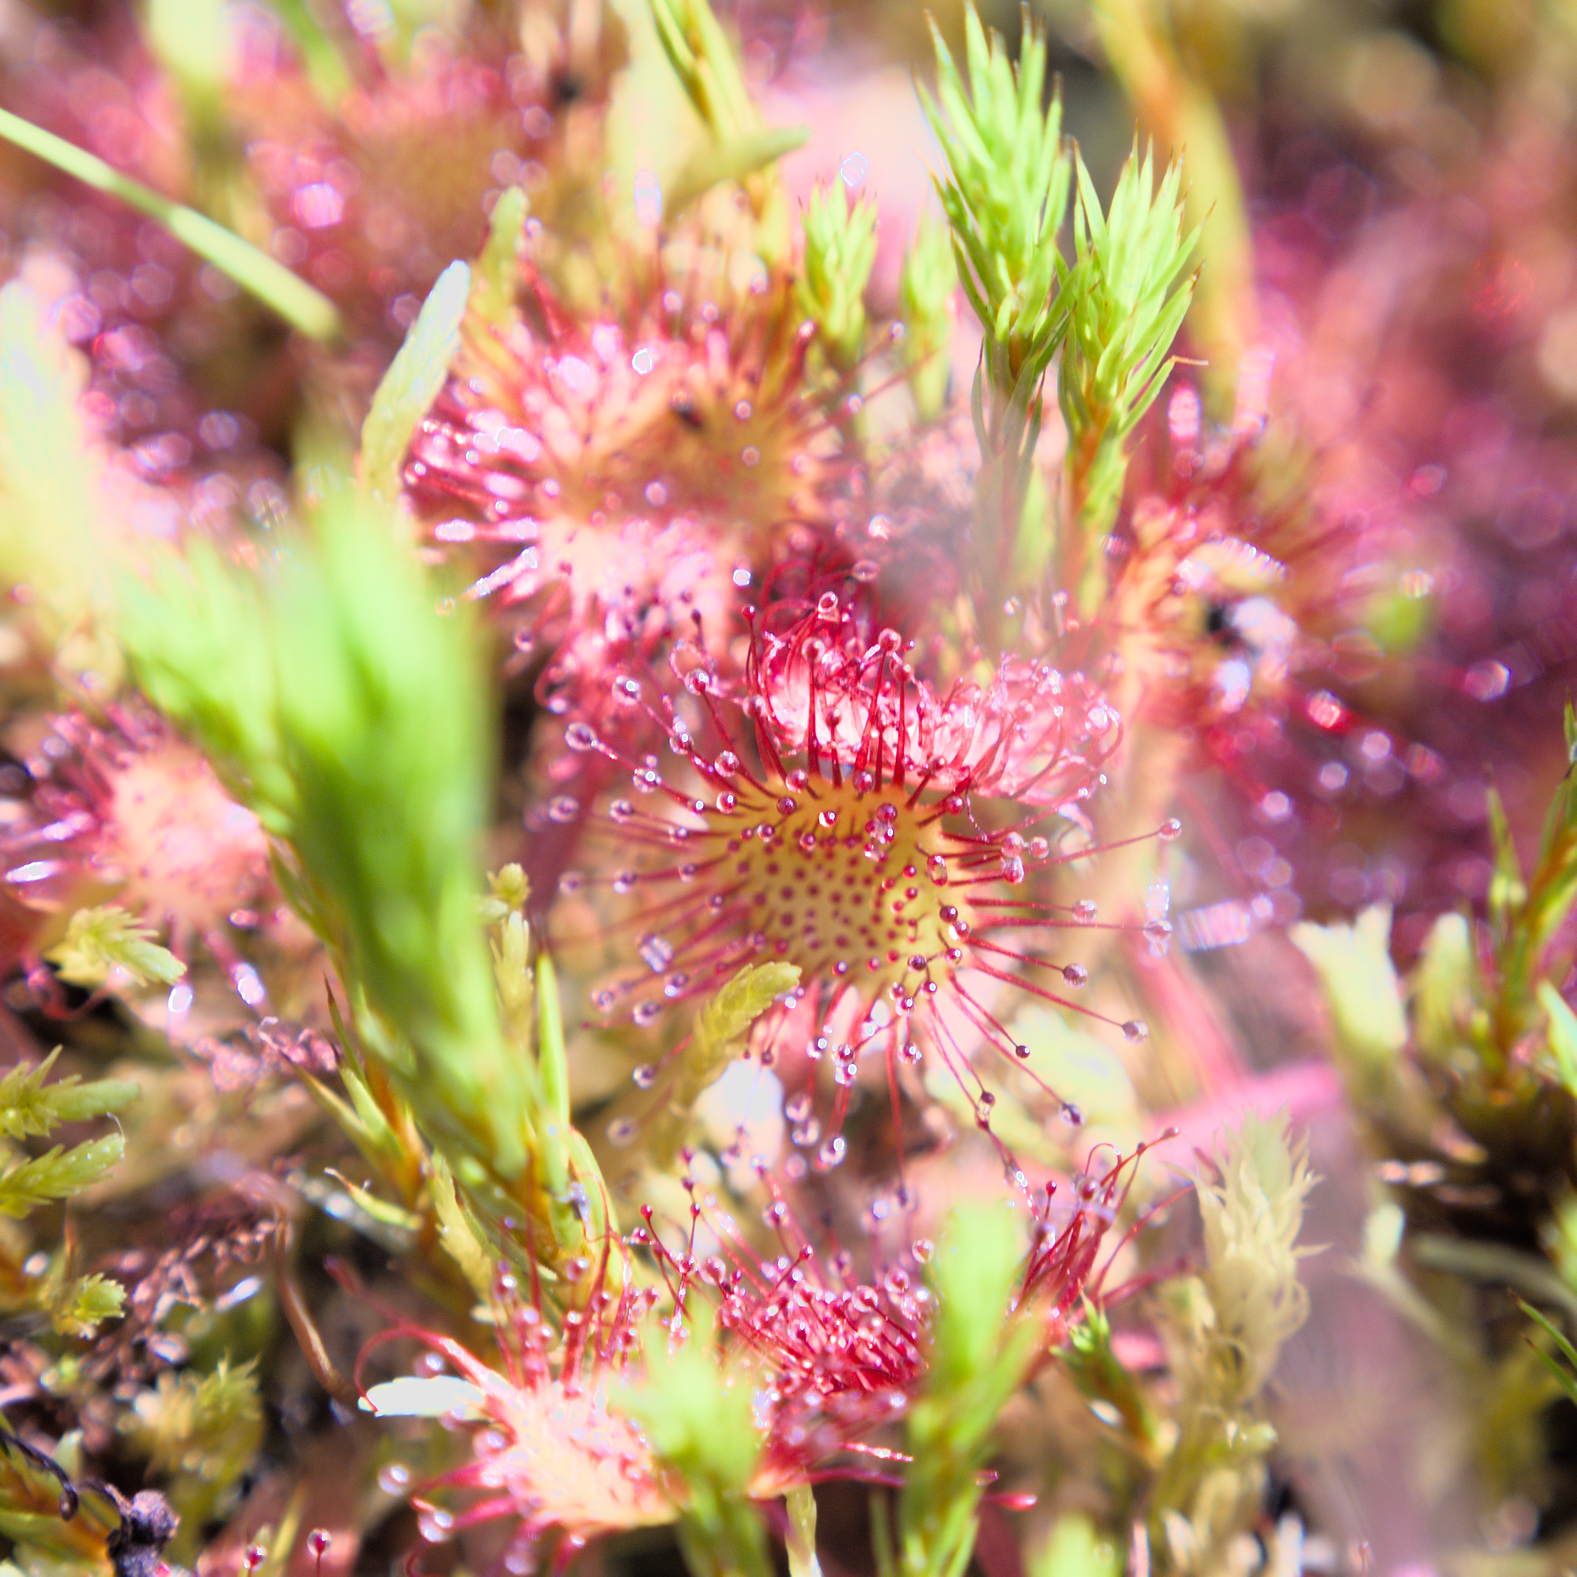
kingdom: Plantae
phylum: Tracheophyta
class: Magnoliopsida
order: Caryophyllales
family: Droseraceae
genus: Drosera
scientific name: Drosera rotundifolia
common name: Round-leaved sundew
